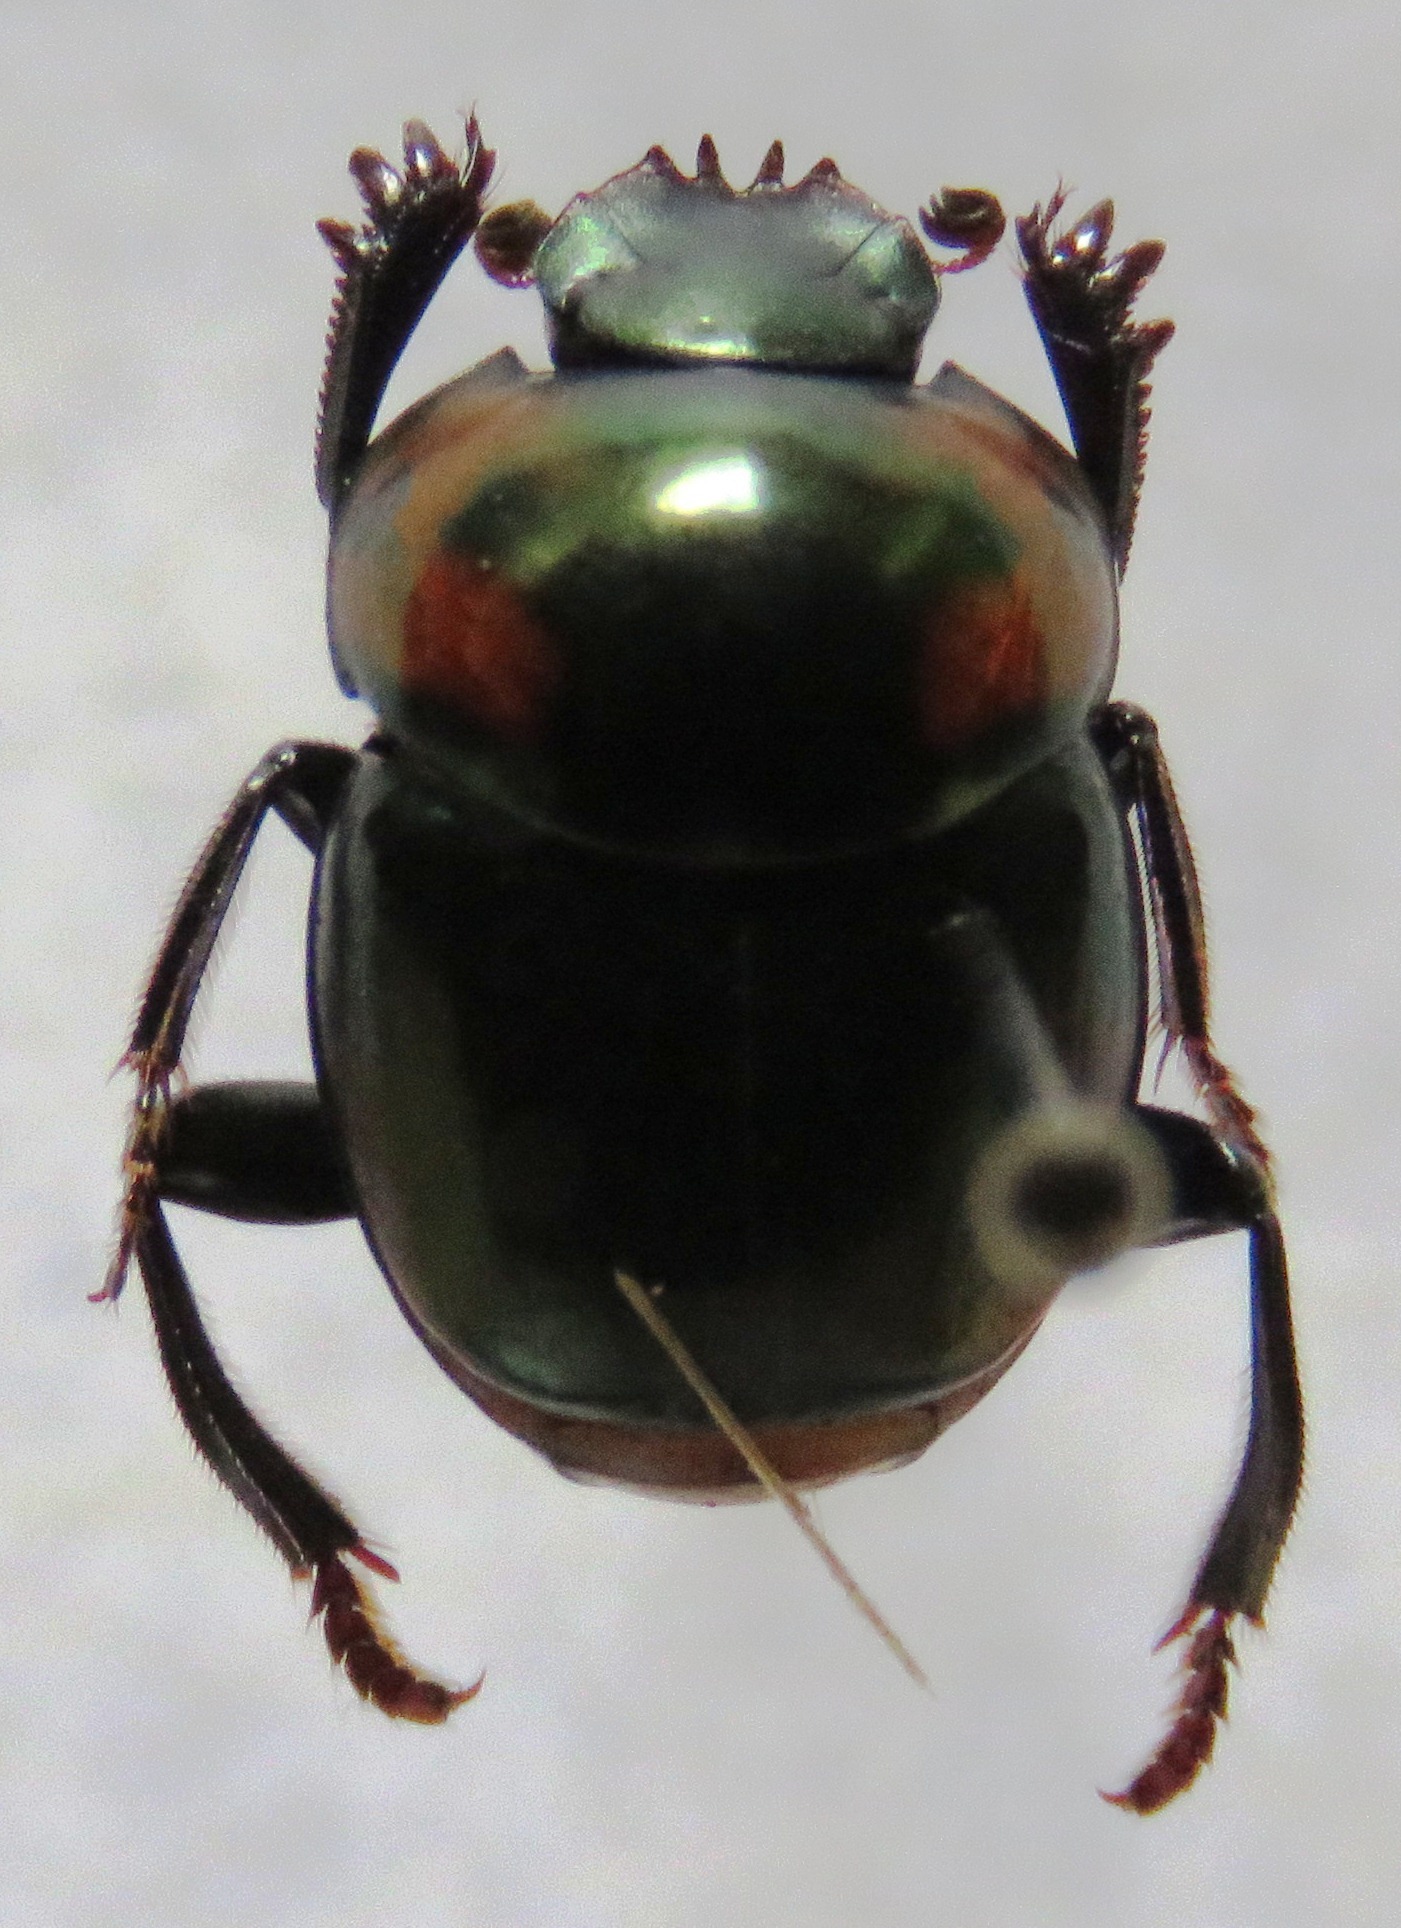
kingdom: Animalia
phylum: Arthropoda
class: Insecta
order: Coleoptera
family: Scarabaeidae
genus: Canthon
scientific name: Canthon cyanellus
